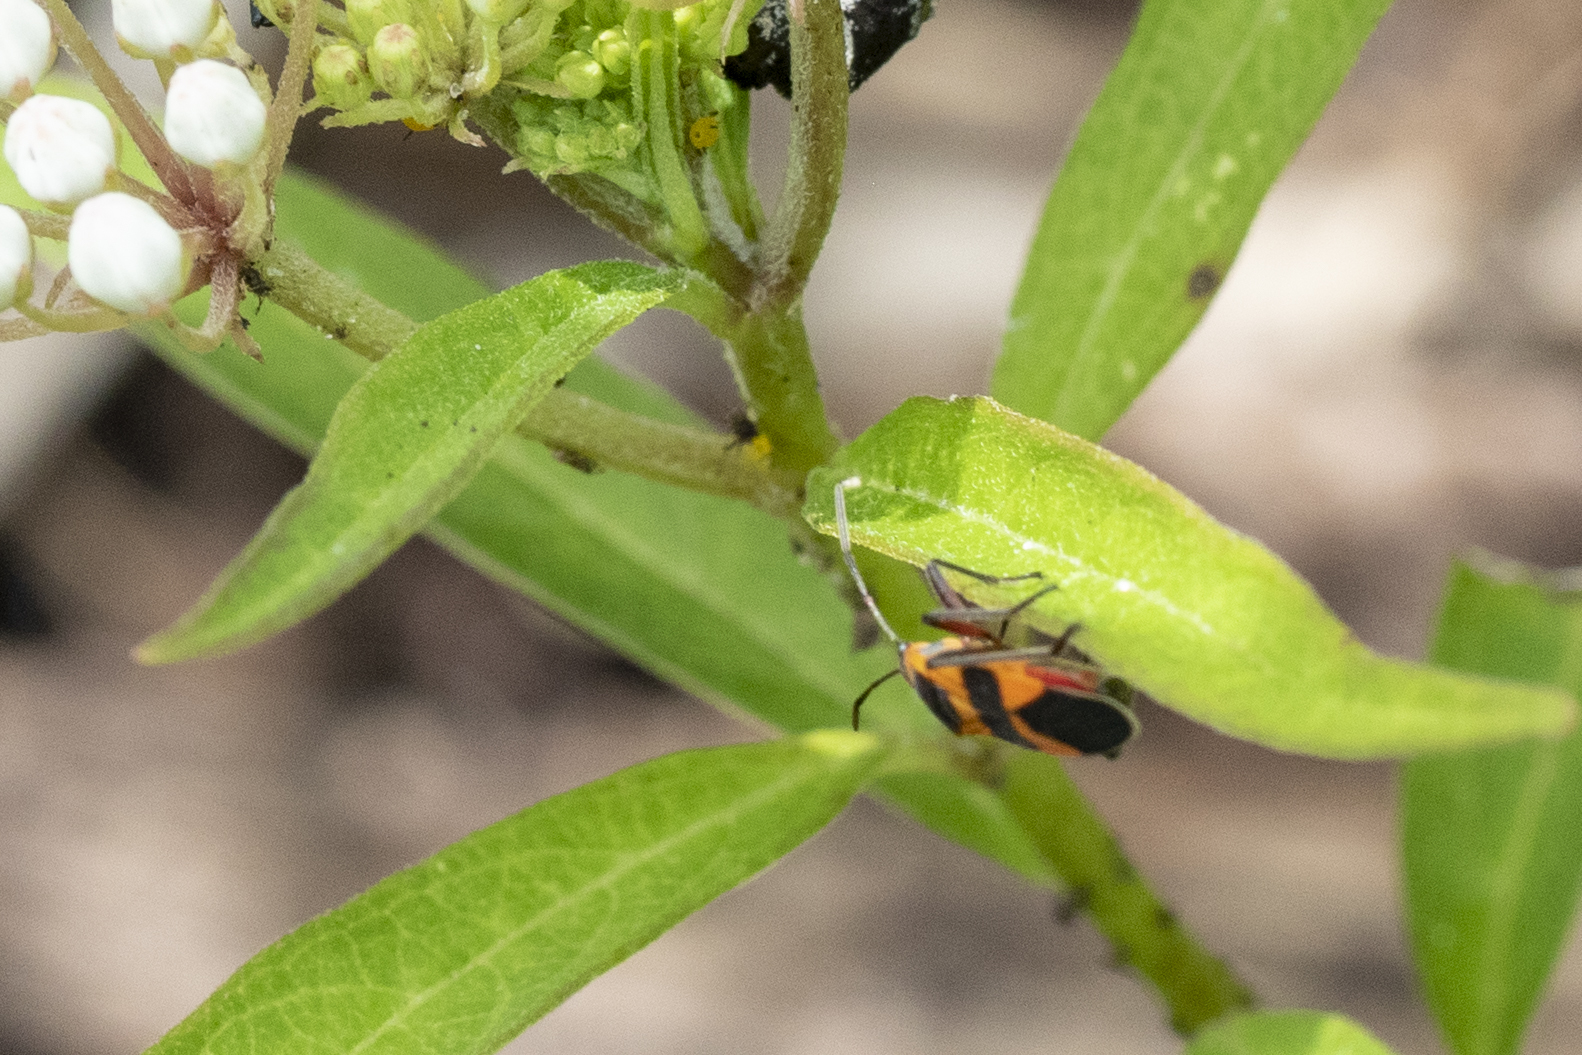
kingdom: Animalia
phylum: Arthropoda
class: Insecta
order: Hemiptera
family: Lygaeidae
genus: Oncopeltus
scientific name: Oncopeltus cingulifer
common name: Lygaeid bug
